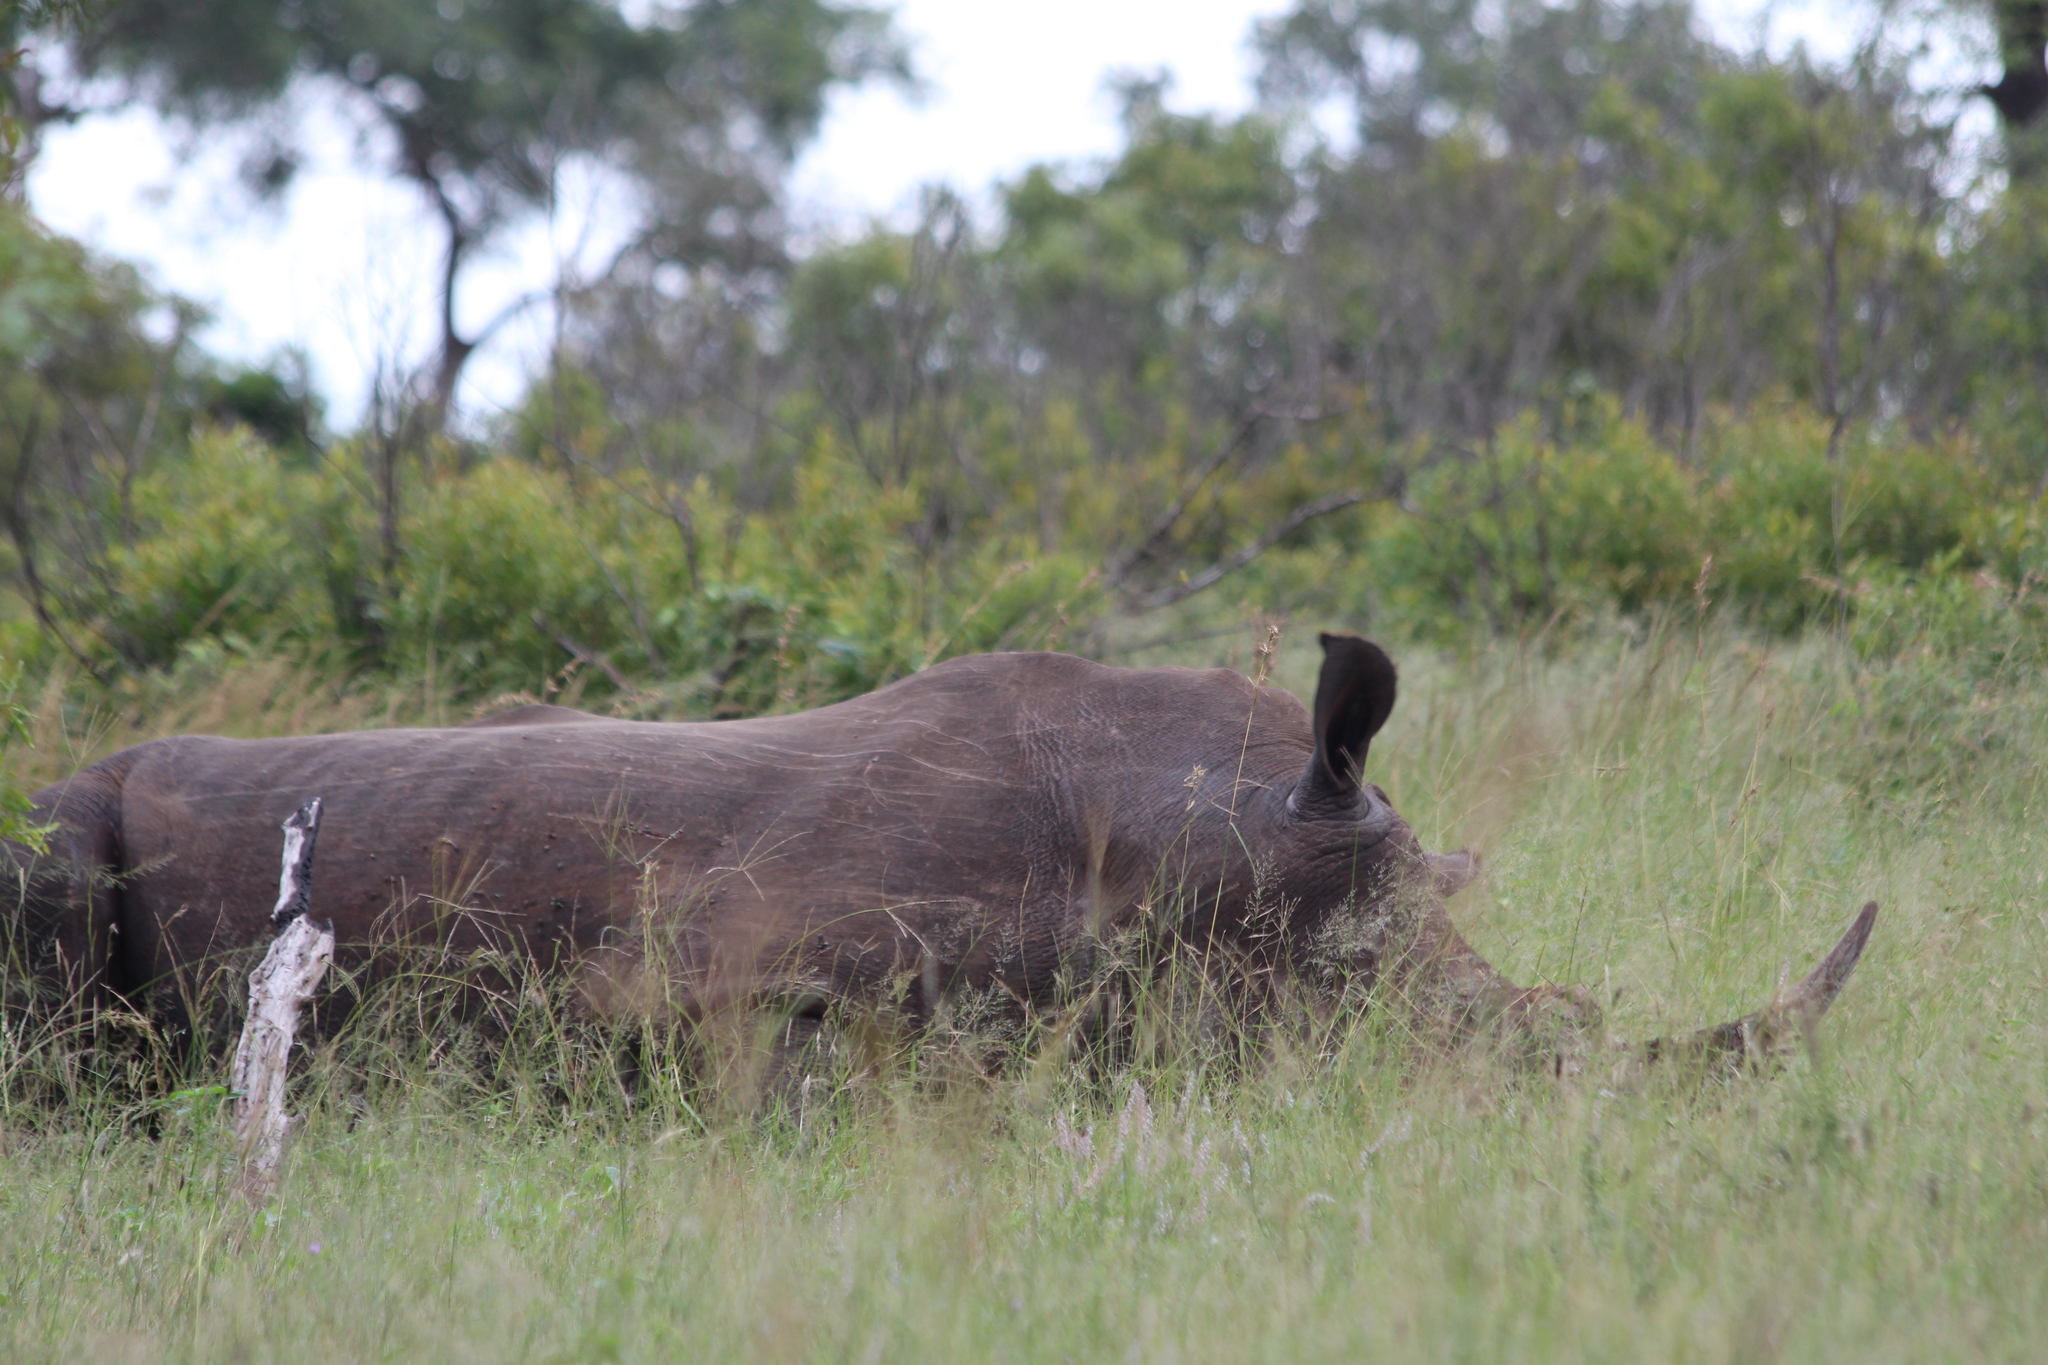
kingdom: Animalia
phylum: Chordata
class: Mammalia
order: Perissodactyla
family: Rhinocerotidae
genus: Ceratotherium
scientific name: Ceratotherium simum
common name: White rhinoceros
